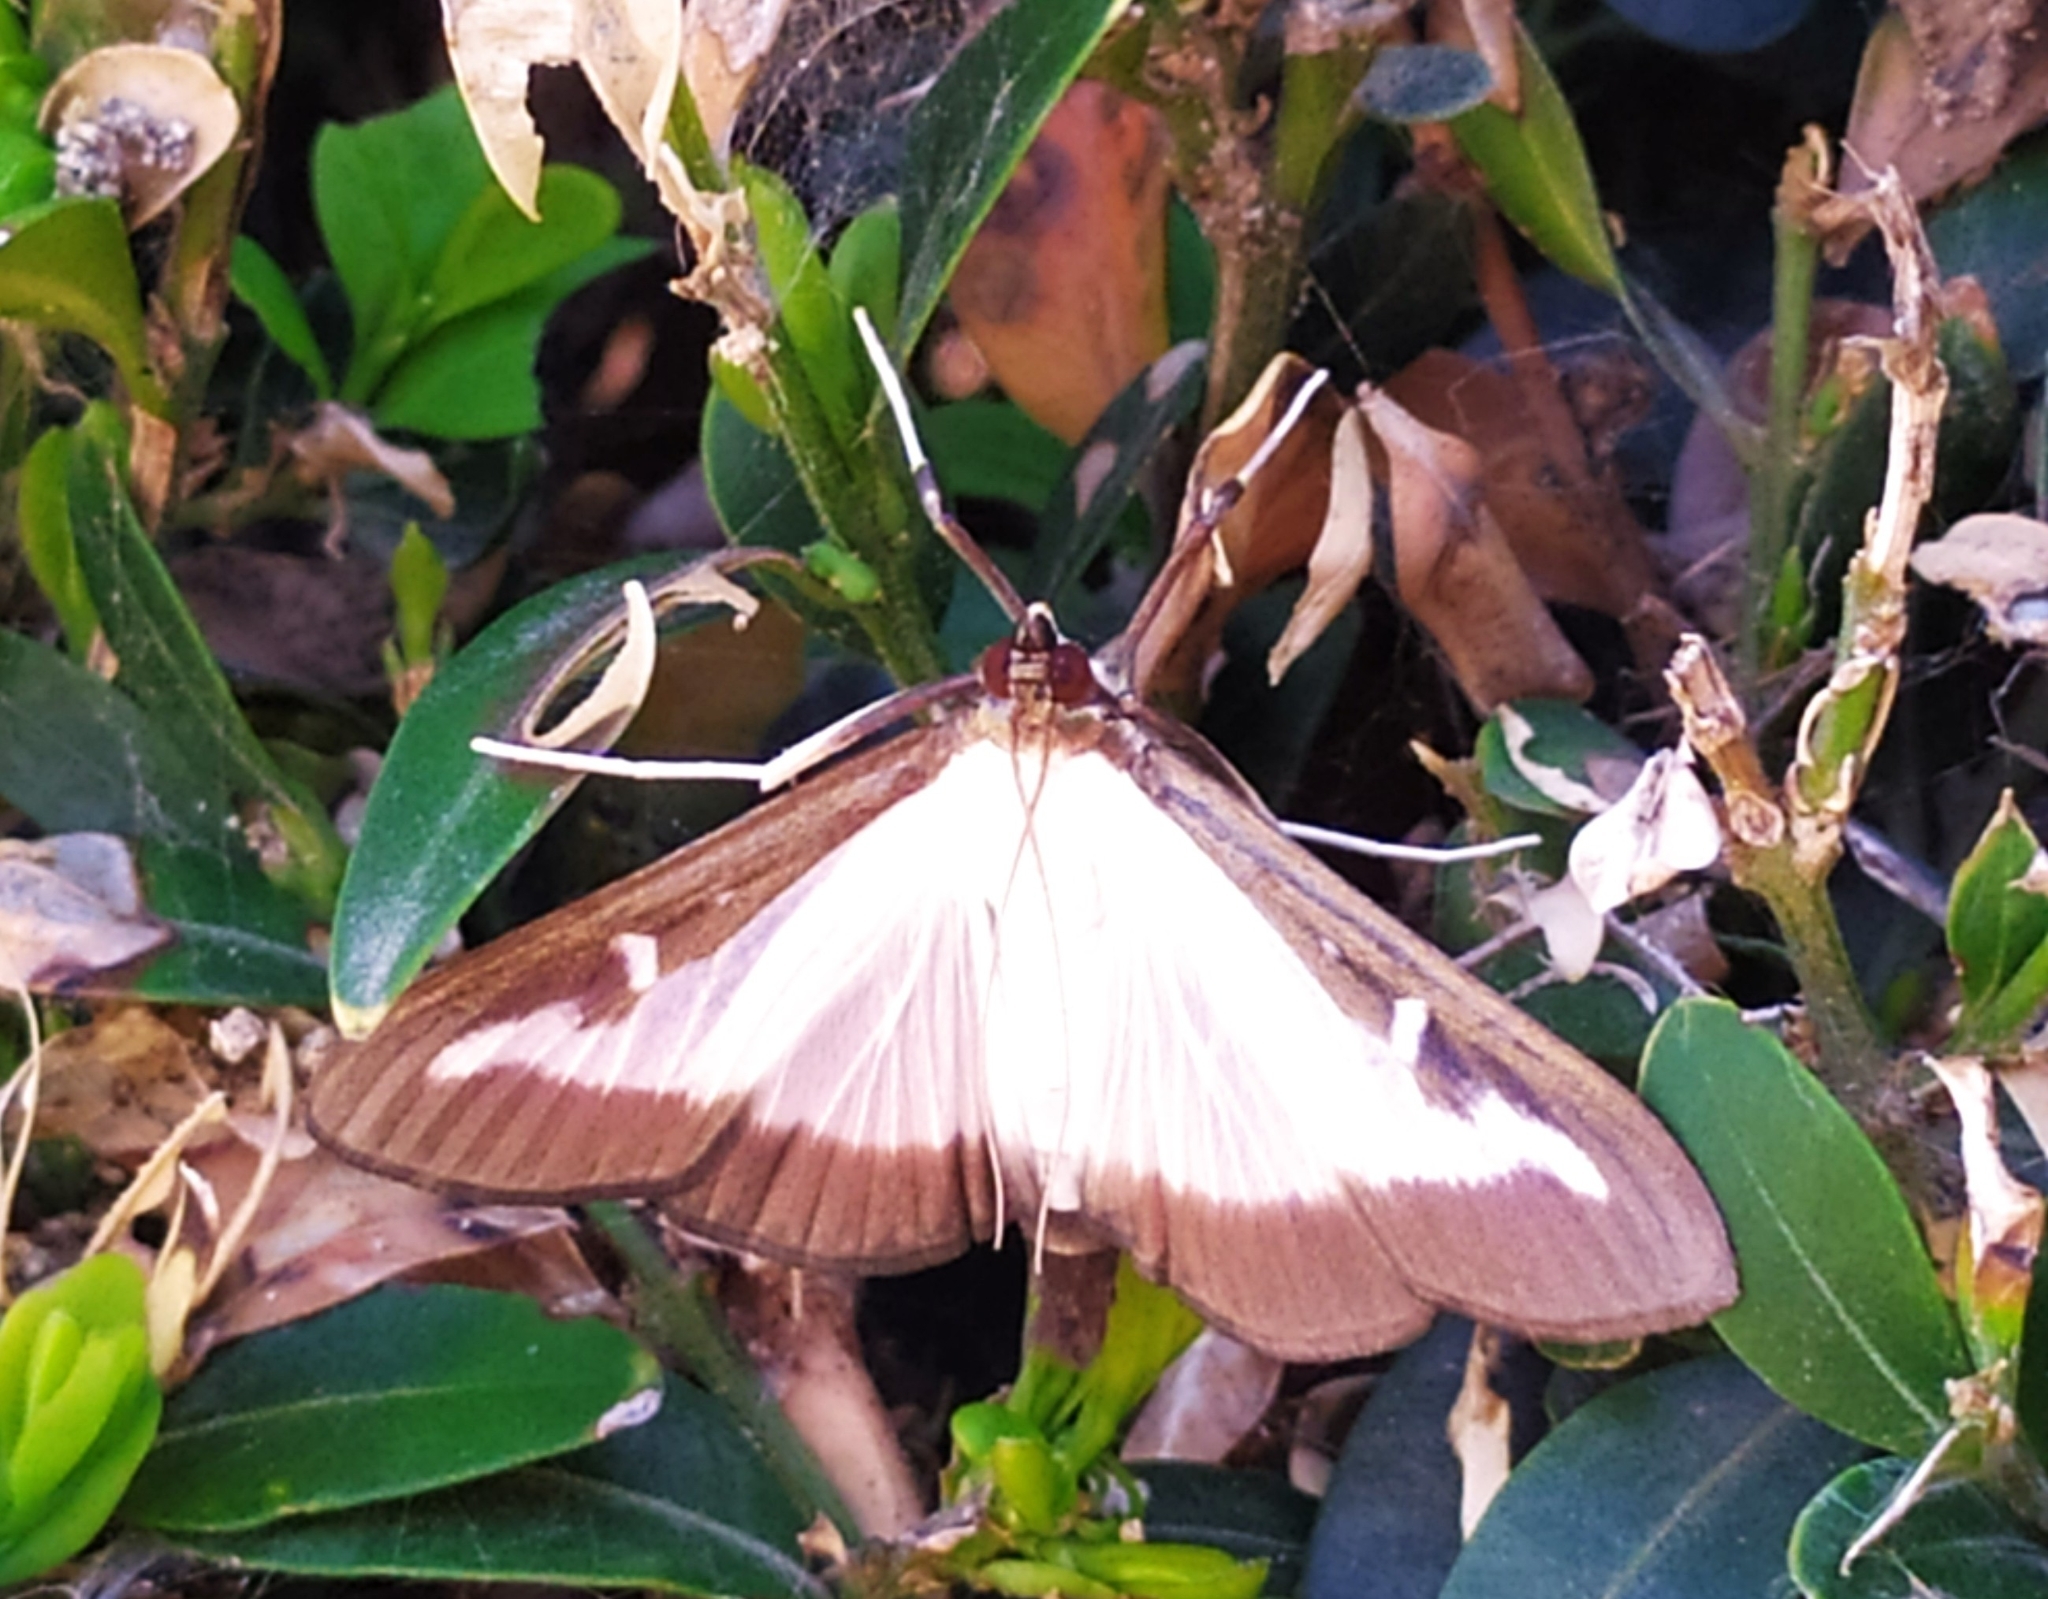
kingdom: Animalia
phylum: Arthropoda
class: Insecta
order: Lepidoptera
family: Crambidae
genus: Cydalima
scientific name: Cydalima perspectalis
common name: Box tree moth
